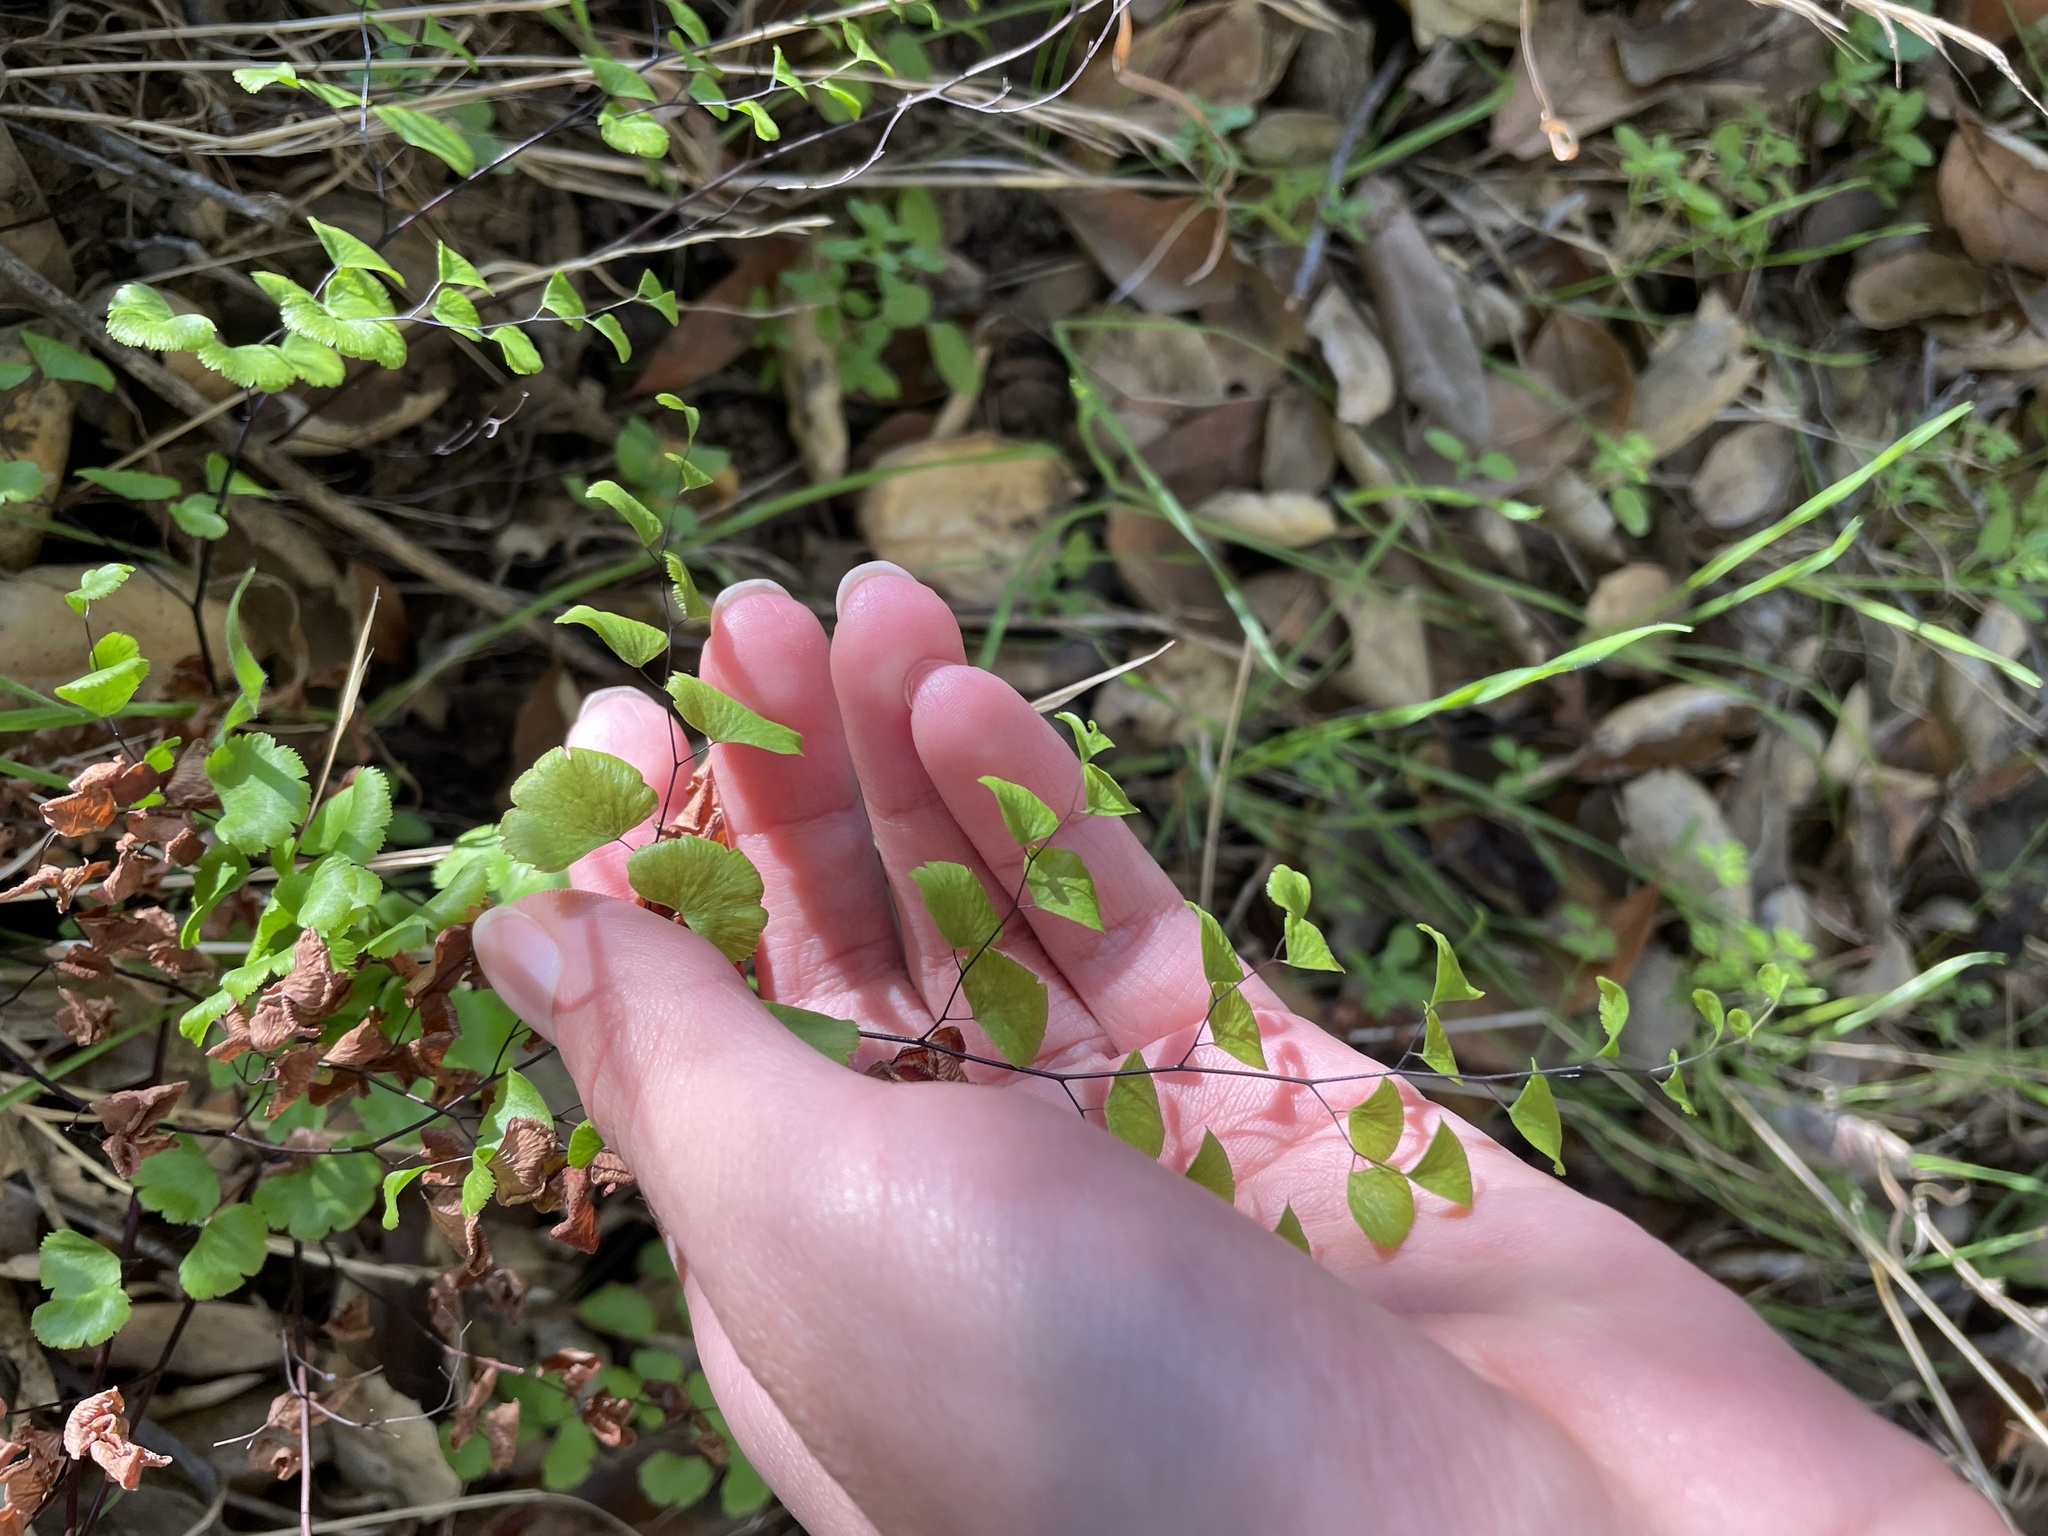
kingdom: Plantae
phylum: Tracheophyta
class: Polypodiopsida
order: Polypodiales
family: Pteridaceae
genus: Adiantum
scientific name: Adiantum jordanii
